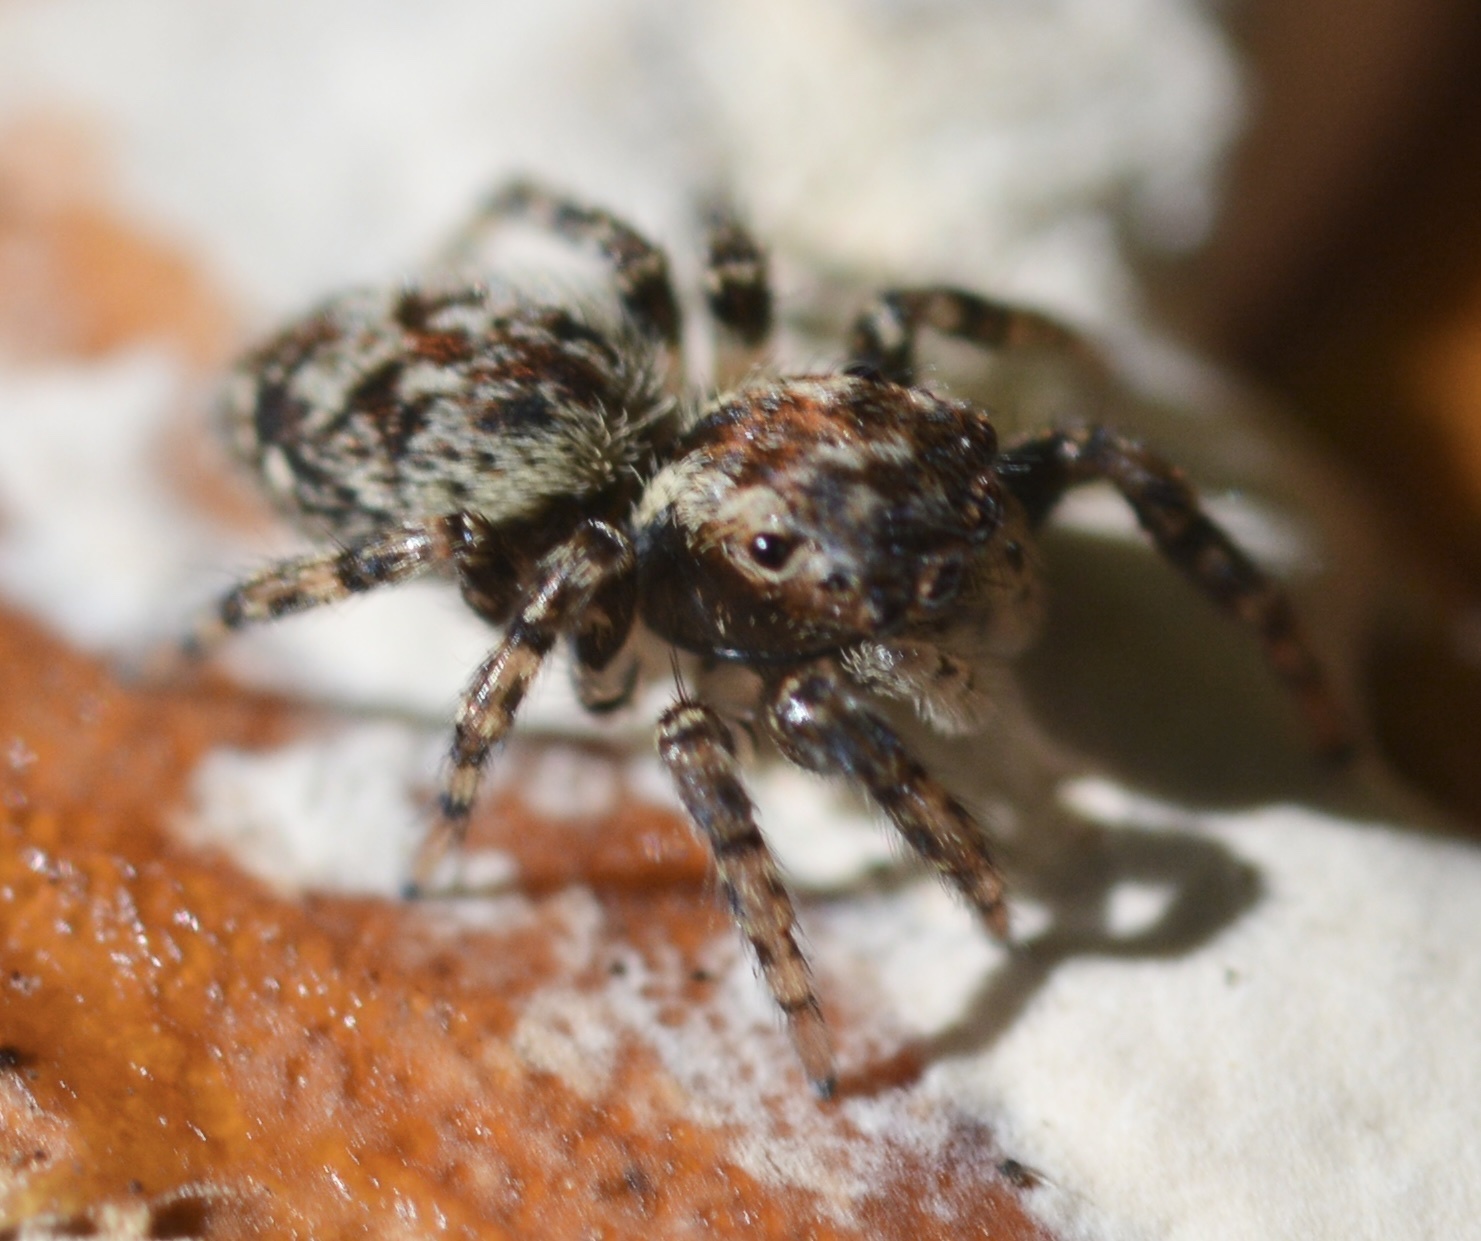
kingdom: Animalia
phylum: Arthropoda
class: Arachnida
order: Araneae
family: Salticidae
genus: Mexigonus
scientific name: Mexigonus morosus
